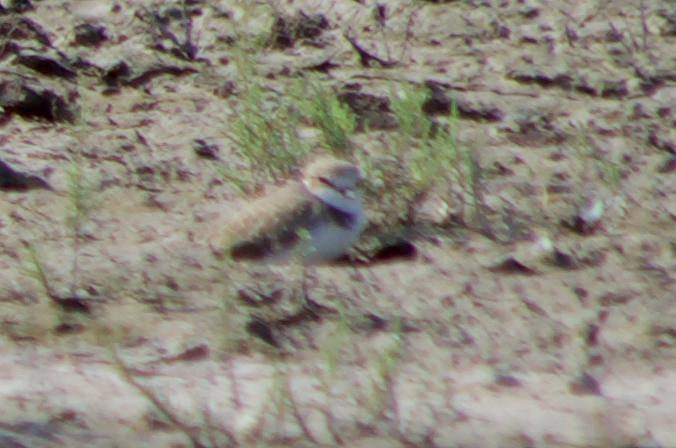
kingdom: Animalia
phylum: Chordata
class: Aves
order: Charadriiformes
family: Charadriidae
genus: Charadrius
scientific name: Charadrius alexandrinus
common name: Kentish plover
